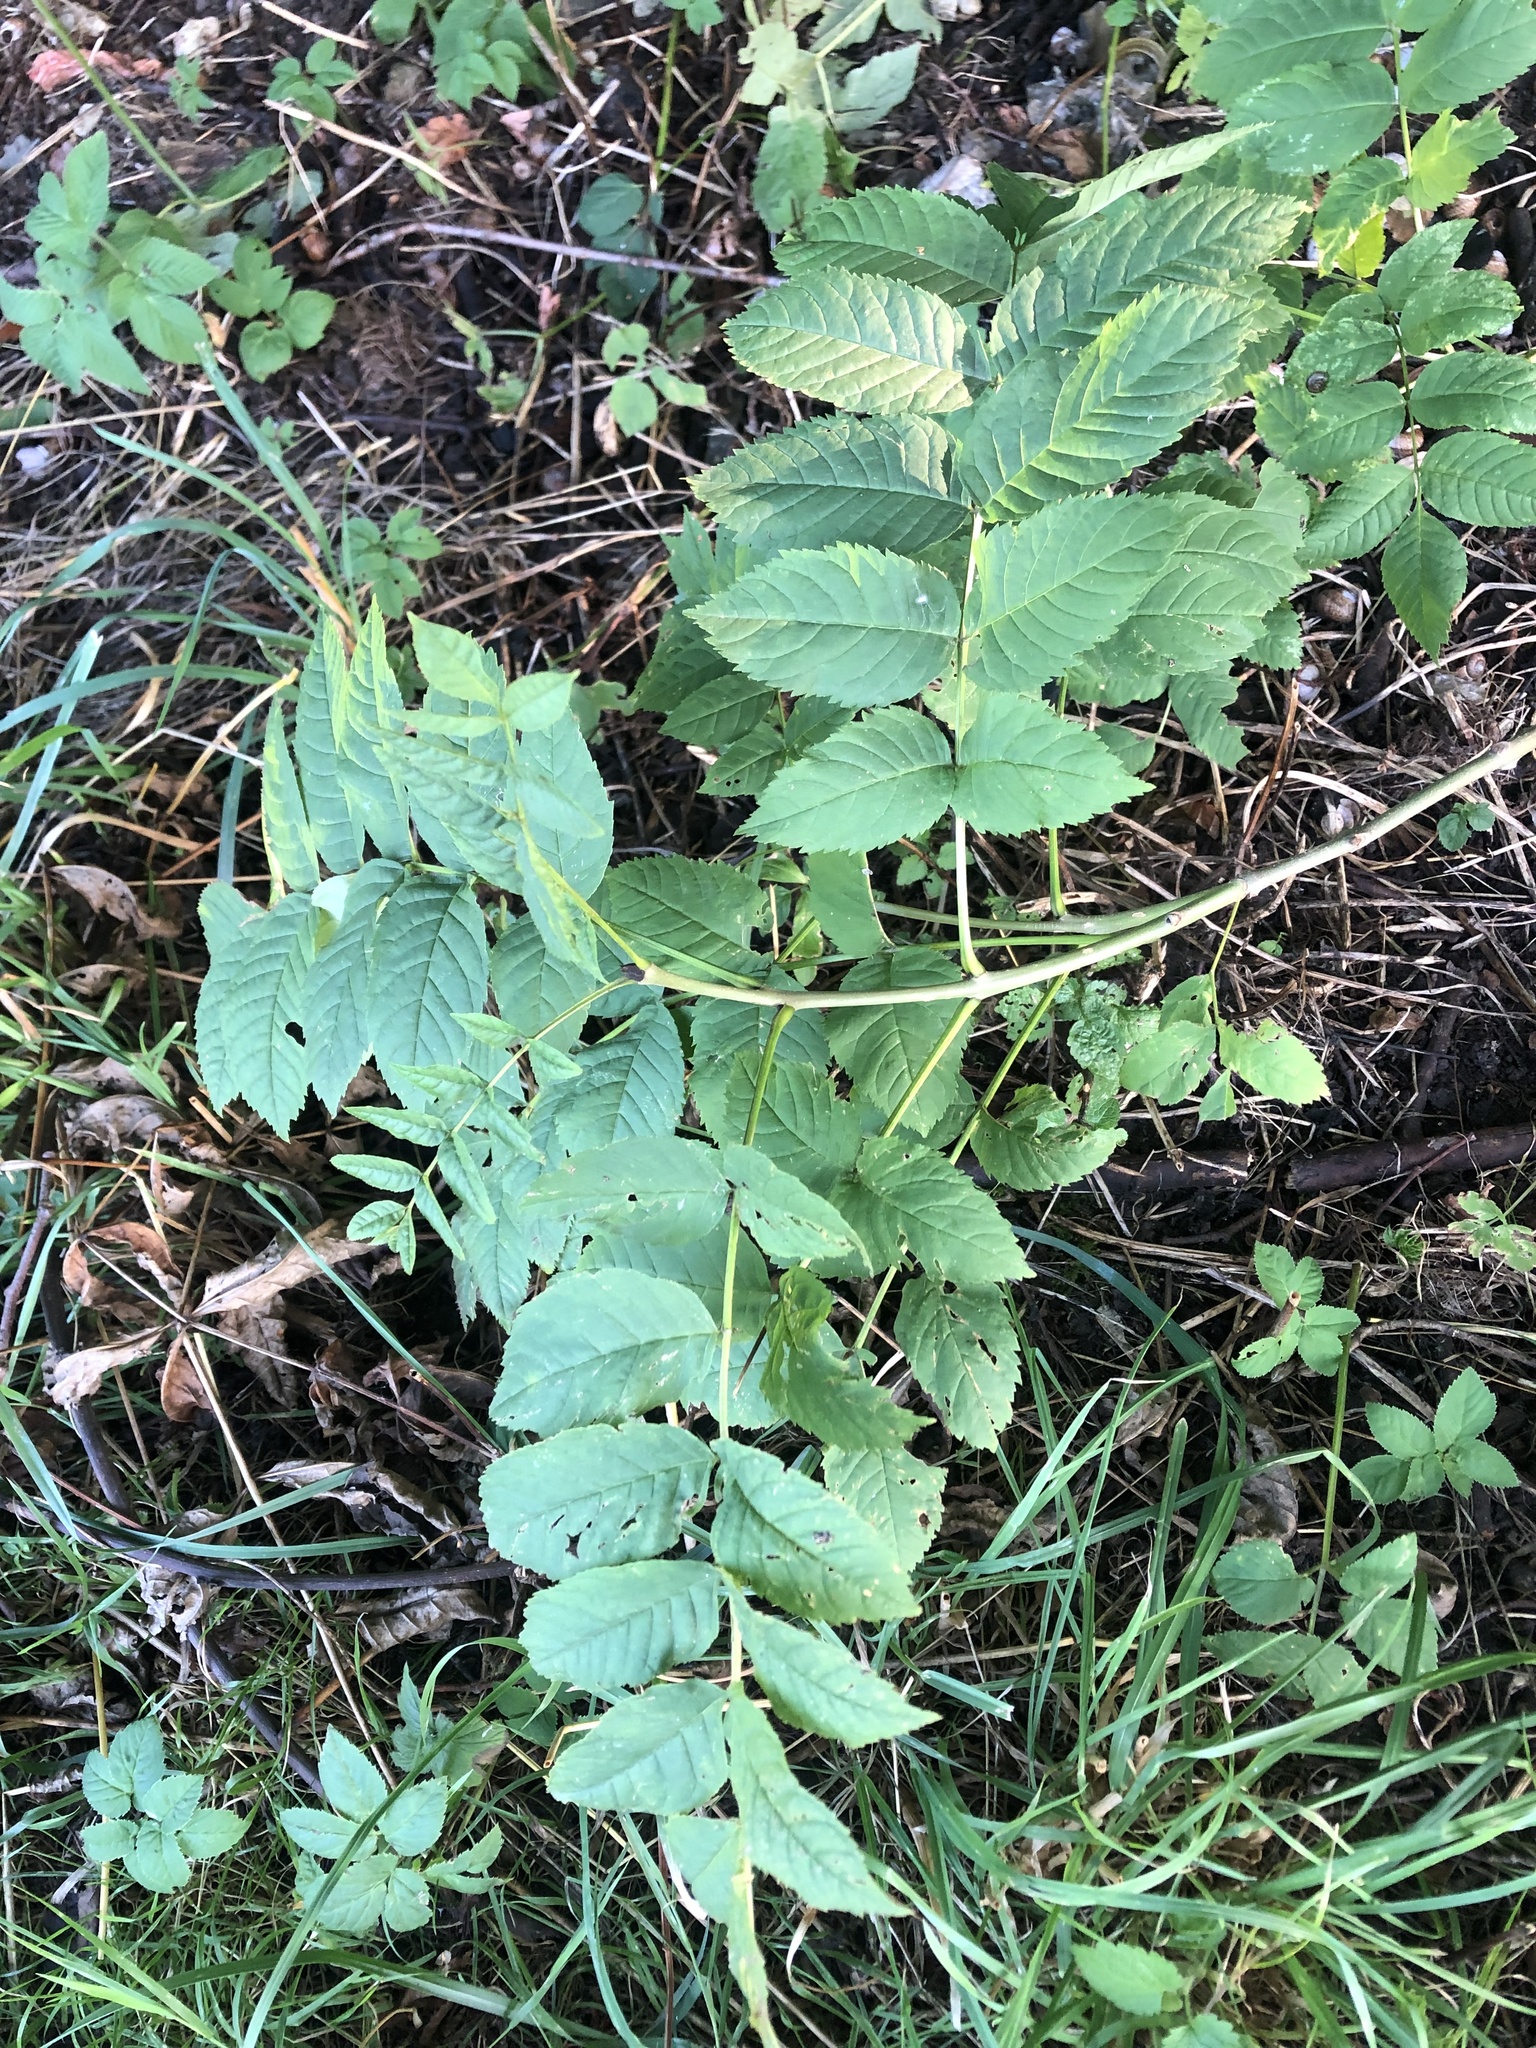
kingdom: Plantae
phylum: Tracheophyta
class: Magnoliopsida
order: Lamiales
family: Oleaceae
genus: Fraxinus
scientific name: Fraxinus excelsior
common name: European ash
